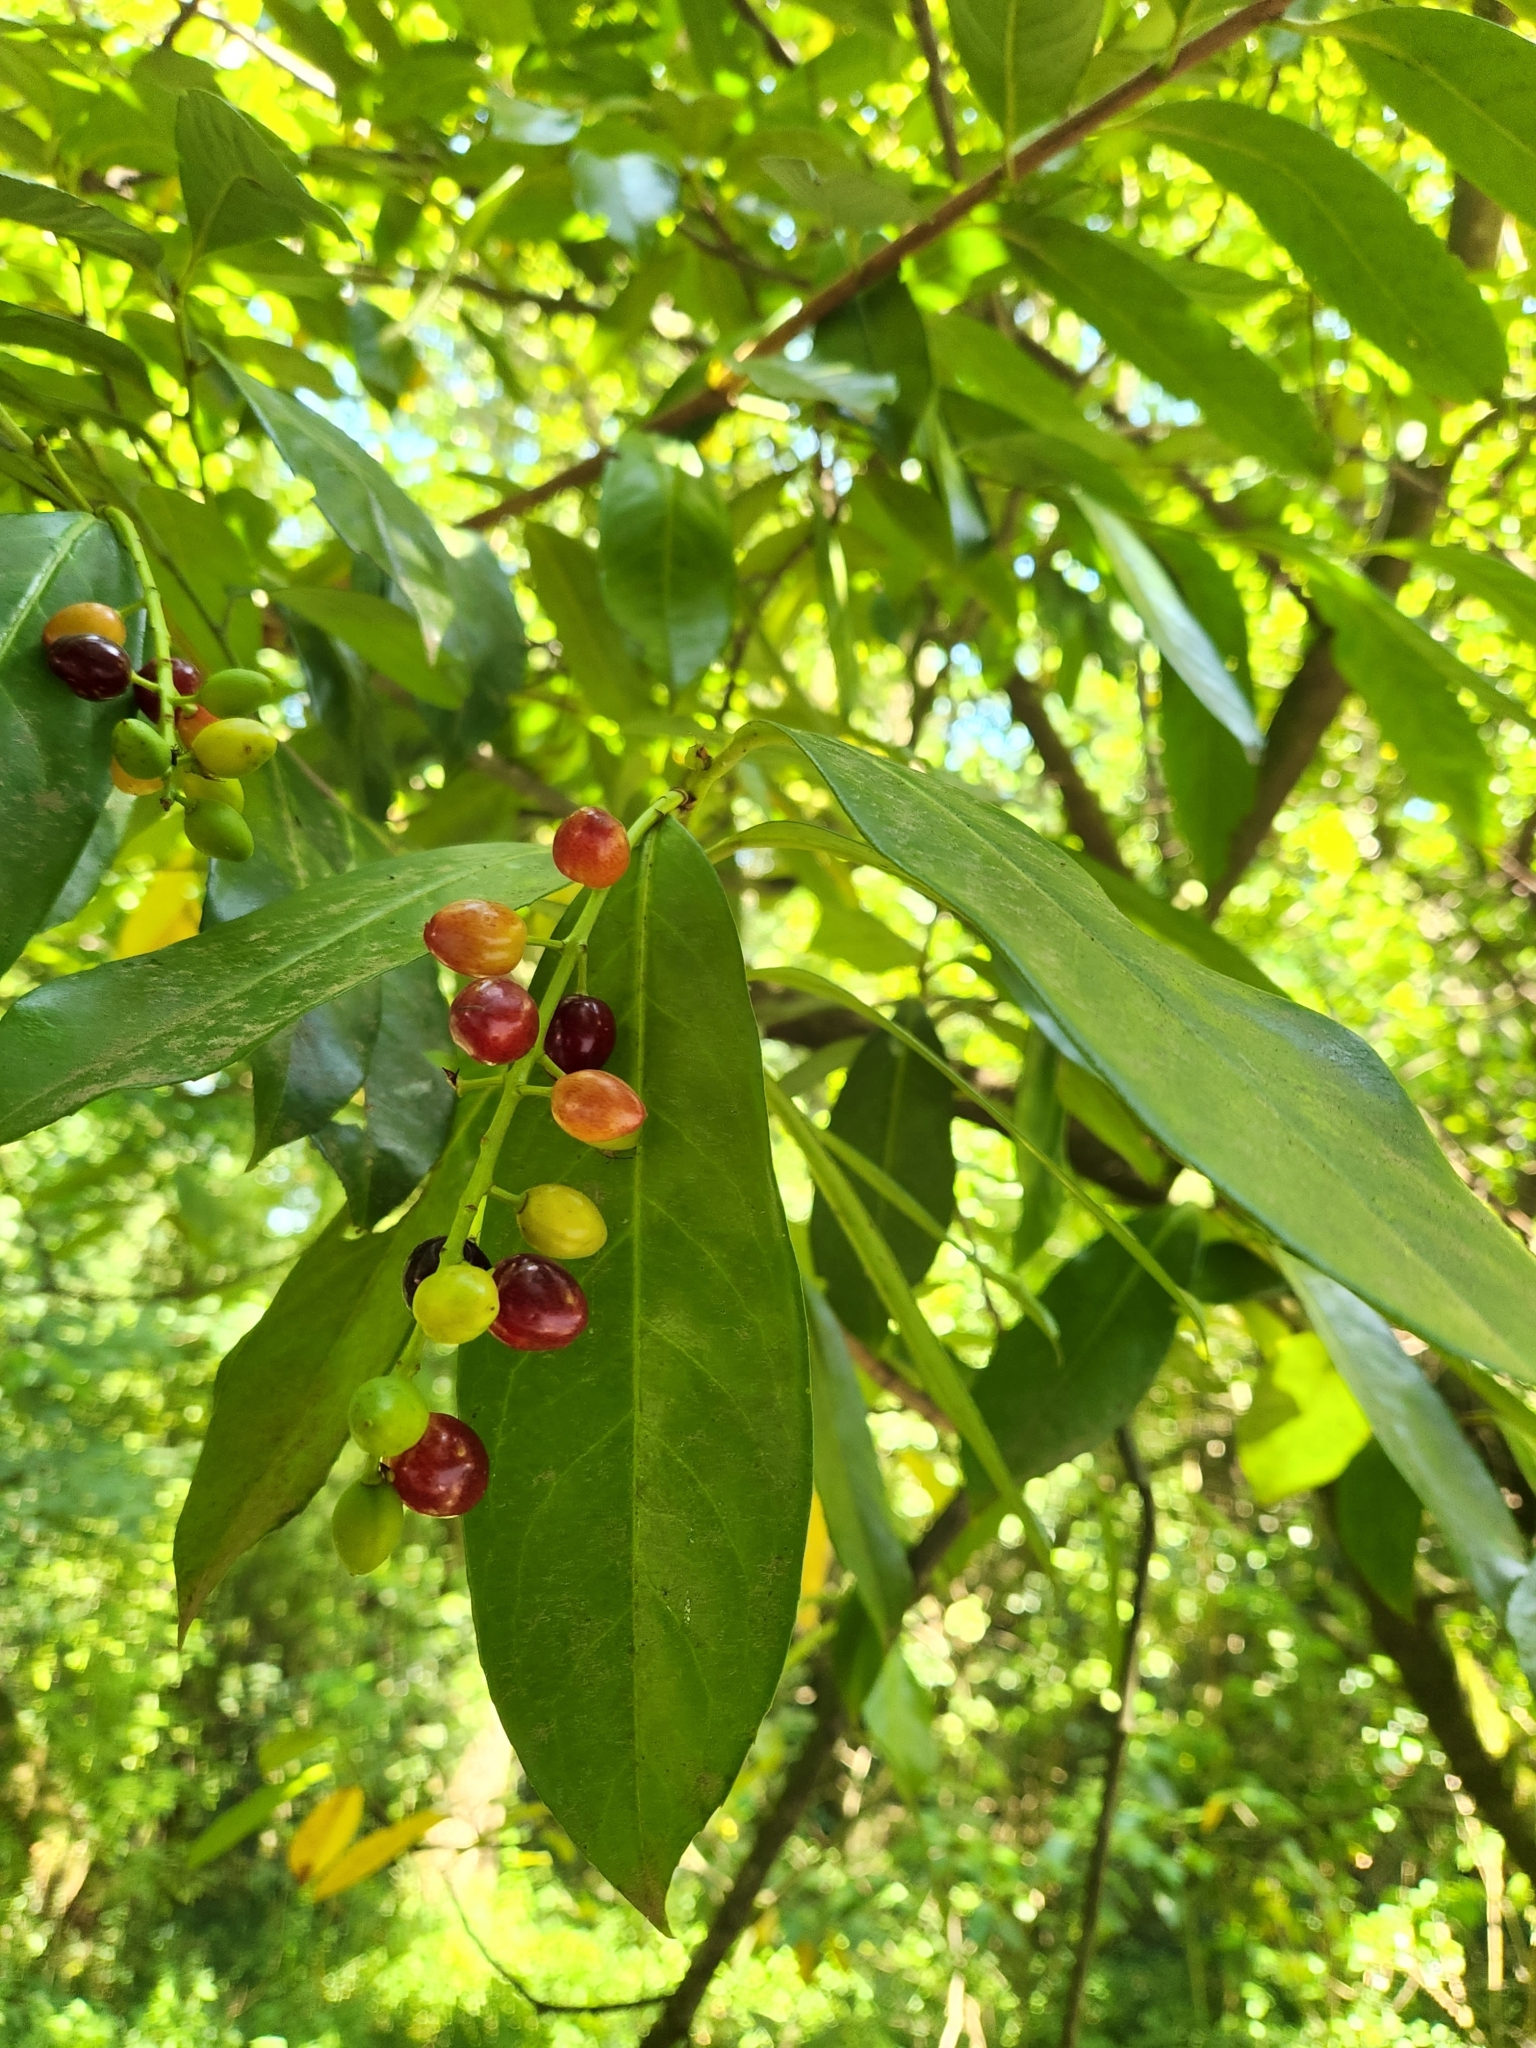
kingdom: Plantae
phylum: Tracheophyta
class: Magnoliopsida
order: Rosales
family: Rosaceae
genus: Prunus
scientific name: Prunus laurocerasus
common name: Cherry laurel
